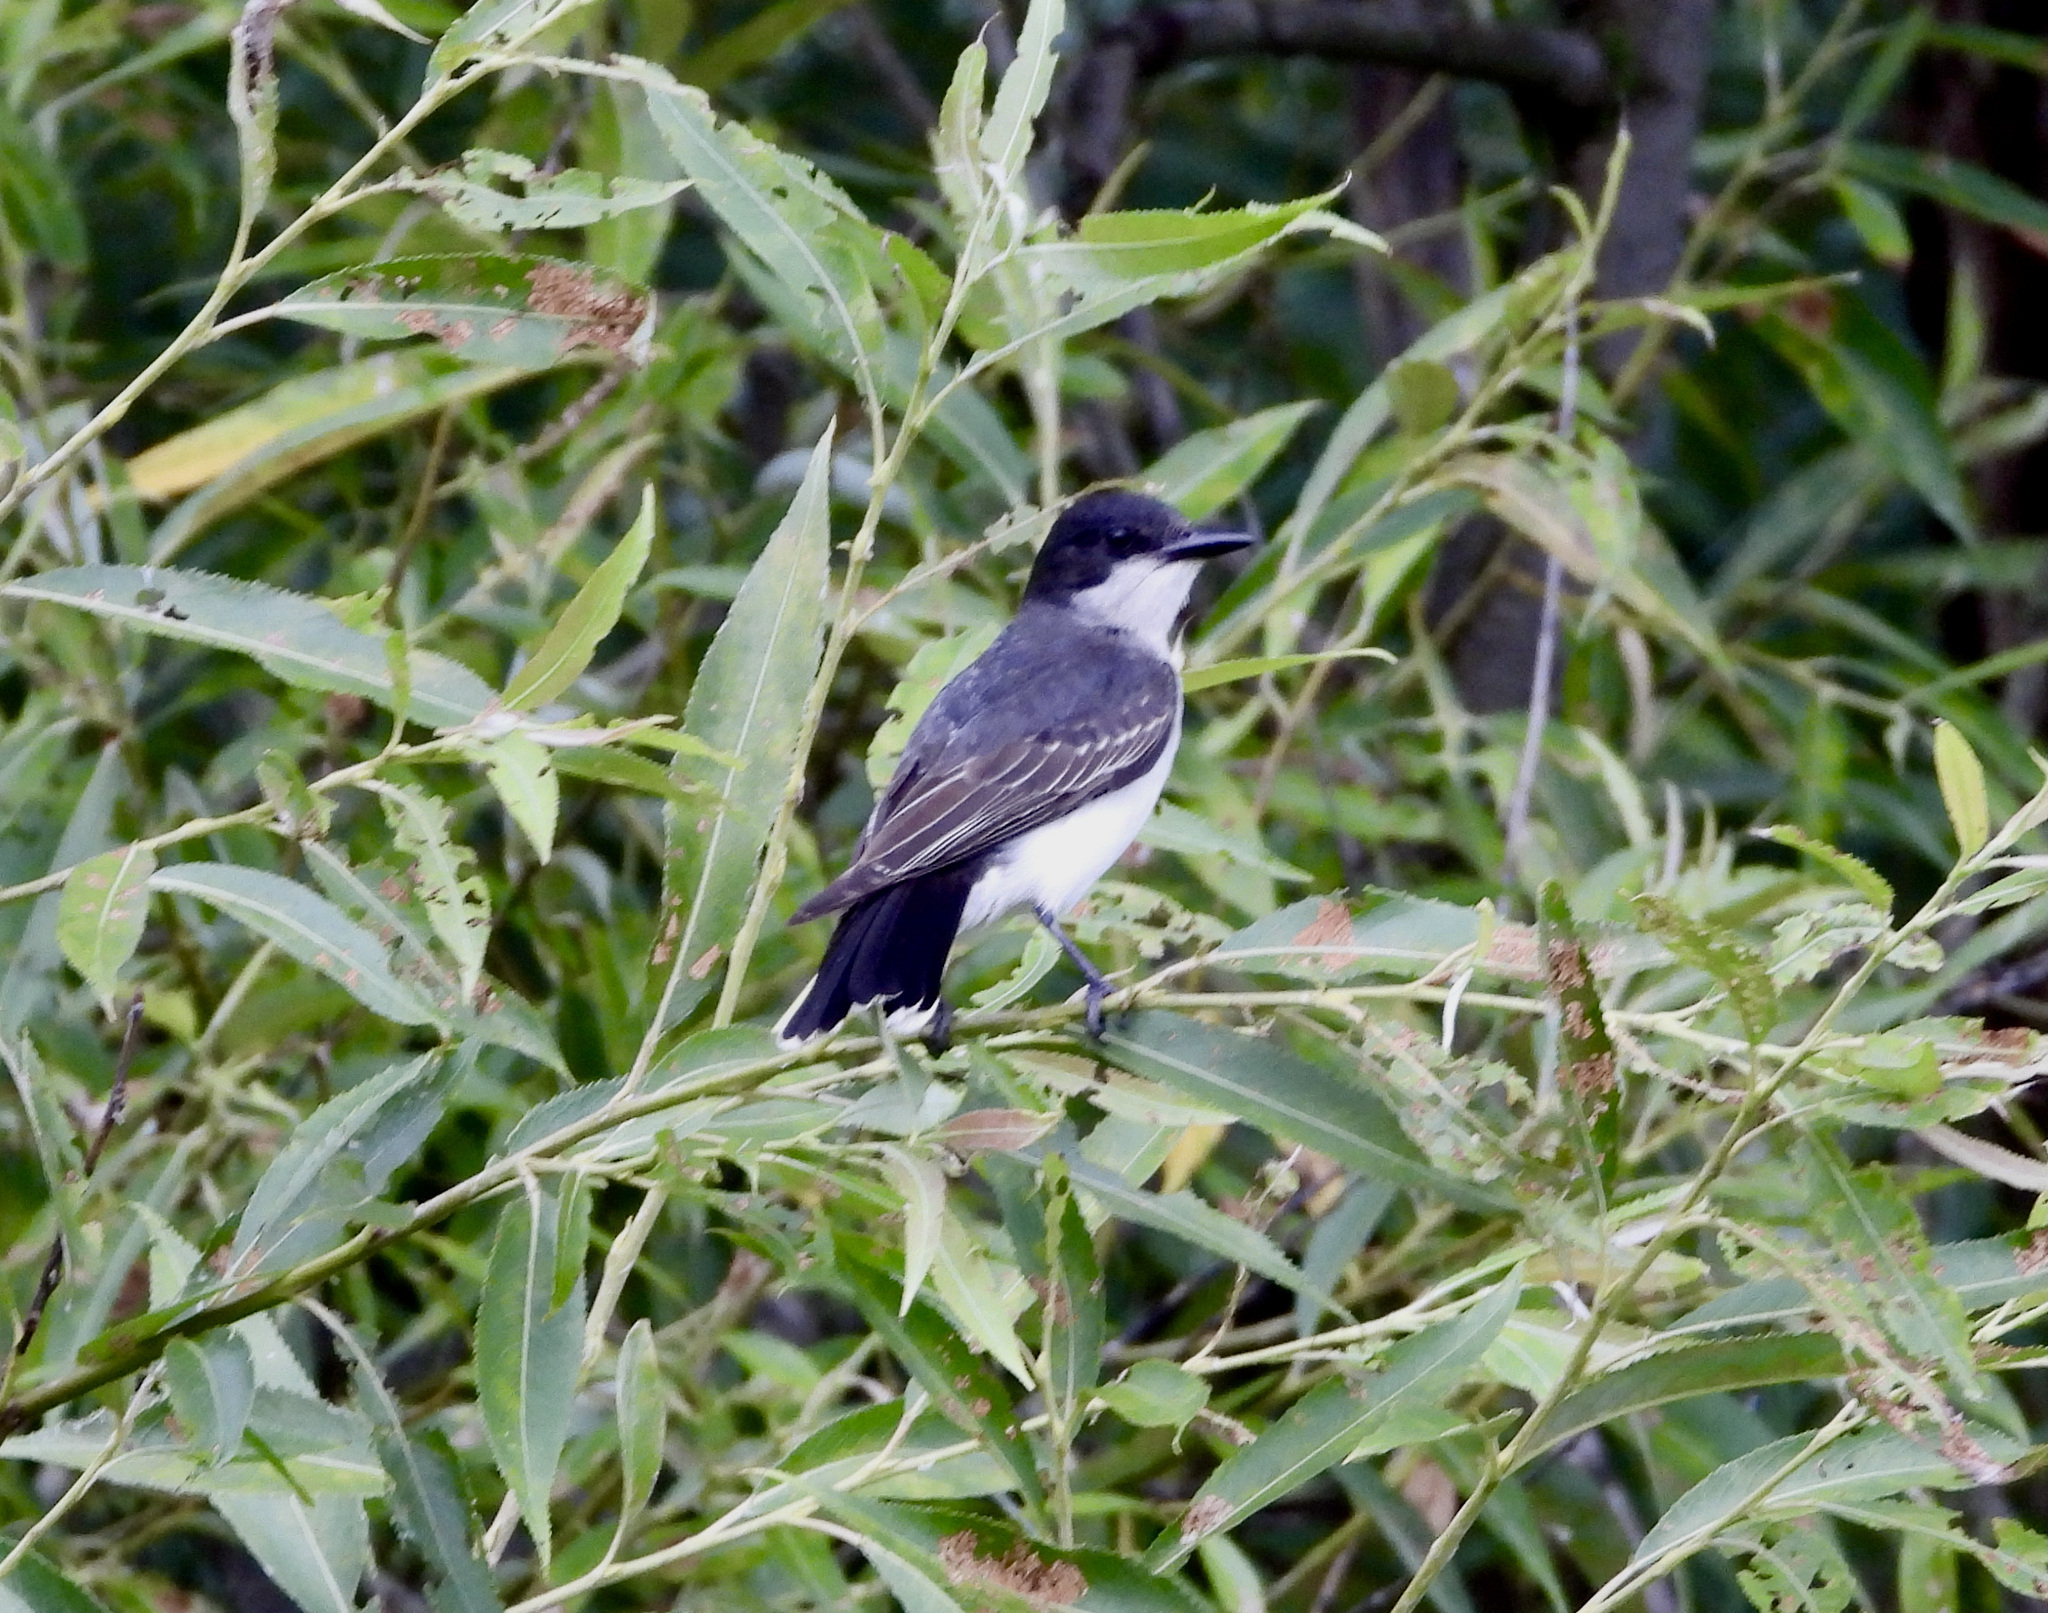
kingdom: Animalia
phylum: Chordata
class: Aves
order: Passeriformes
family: Tyrannidae
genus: Tyrannus
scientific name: Tyrannus tyrannus
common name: Eastern kingbird
